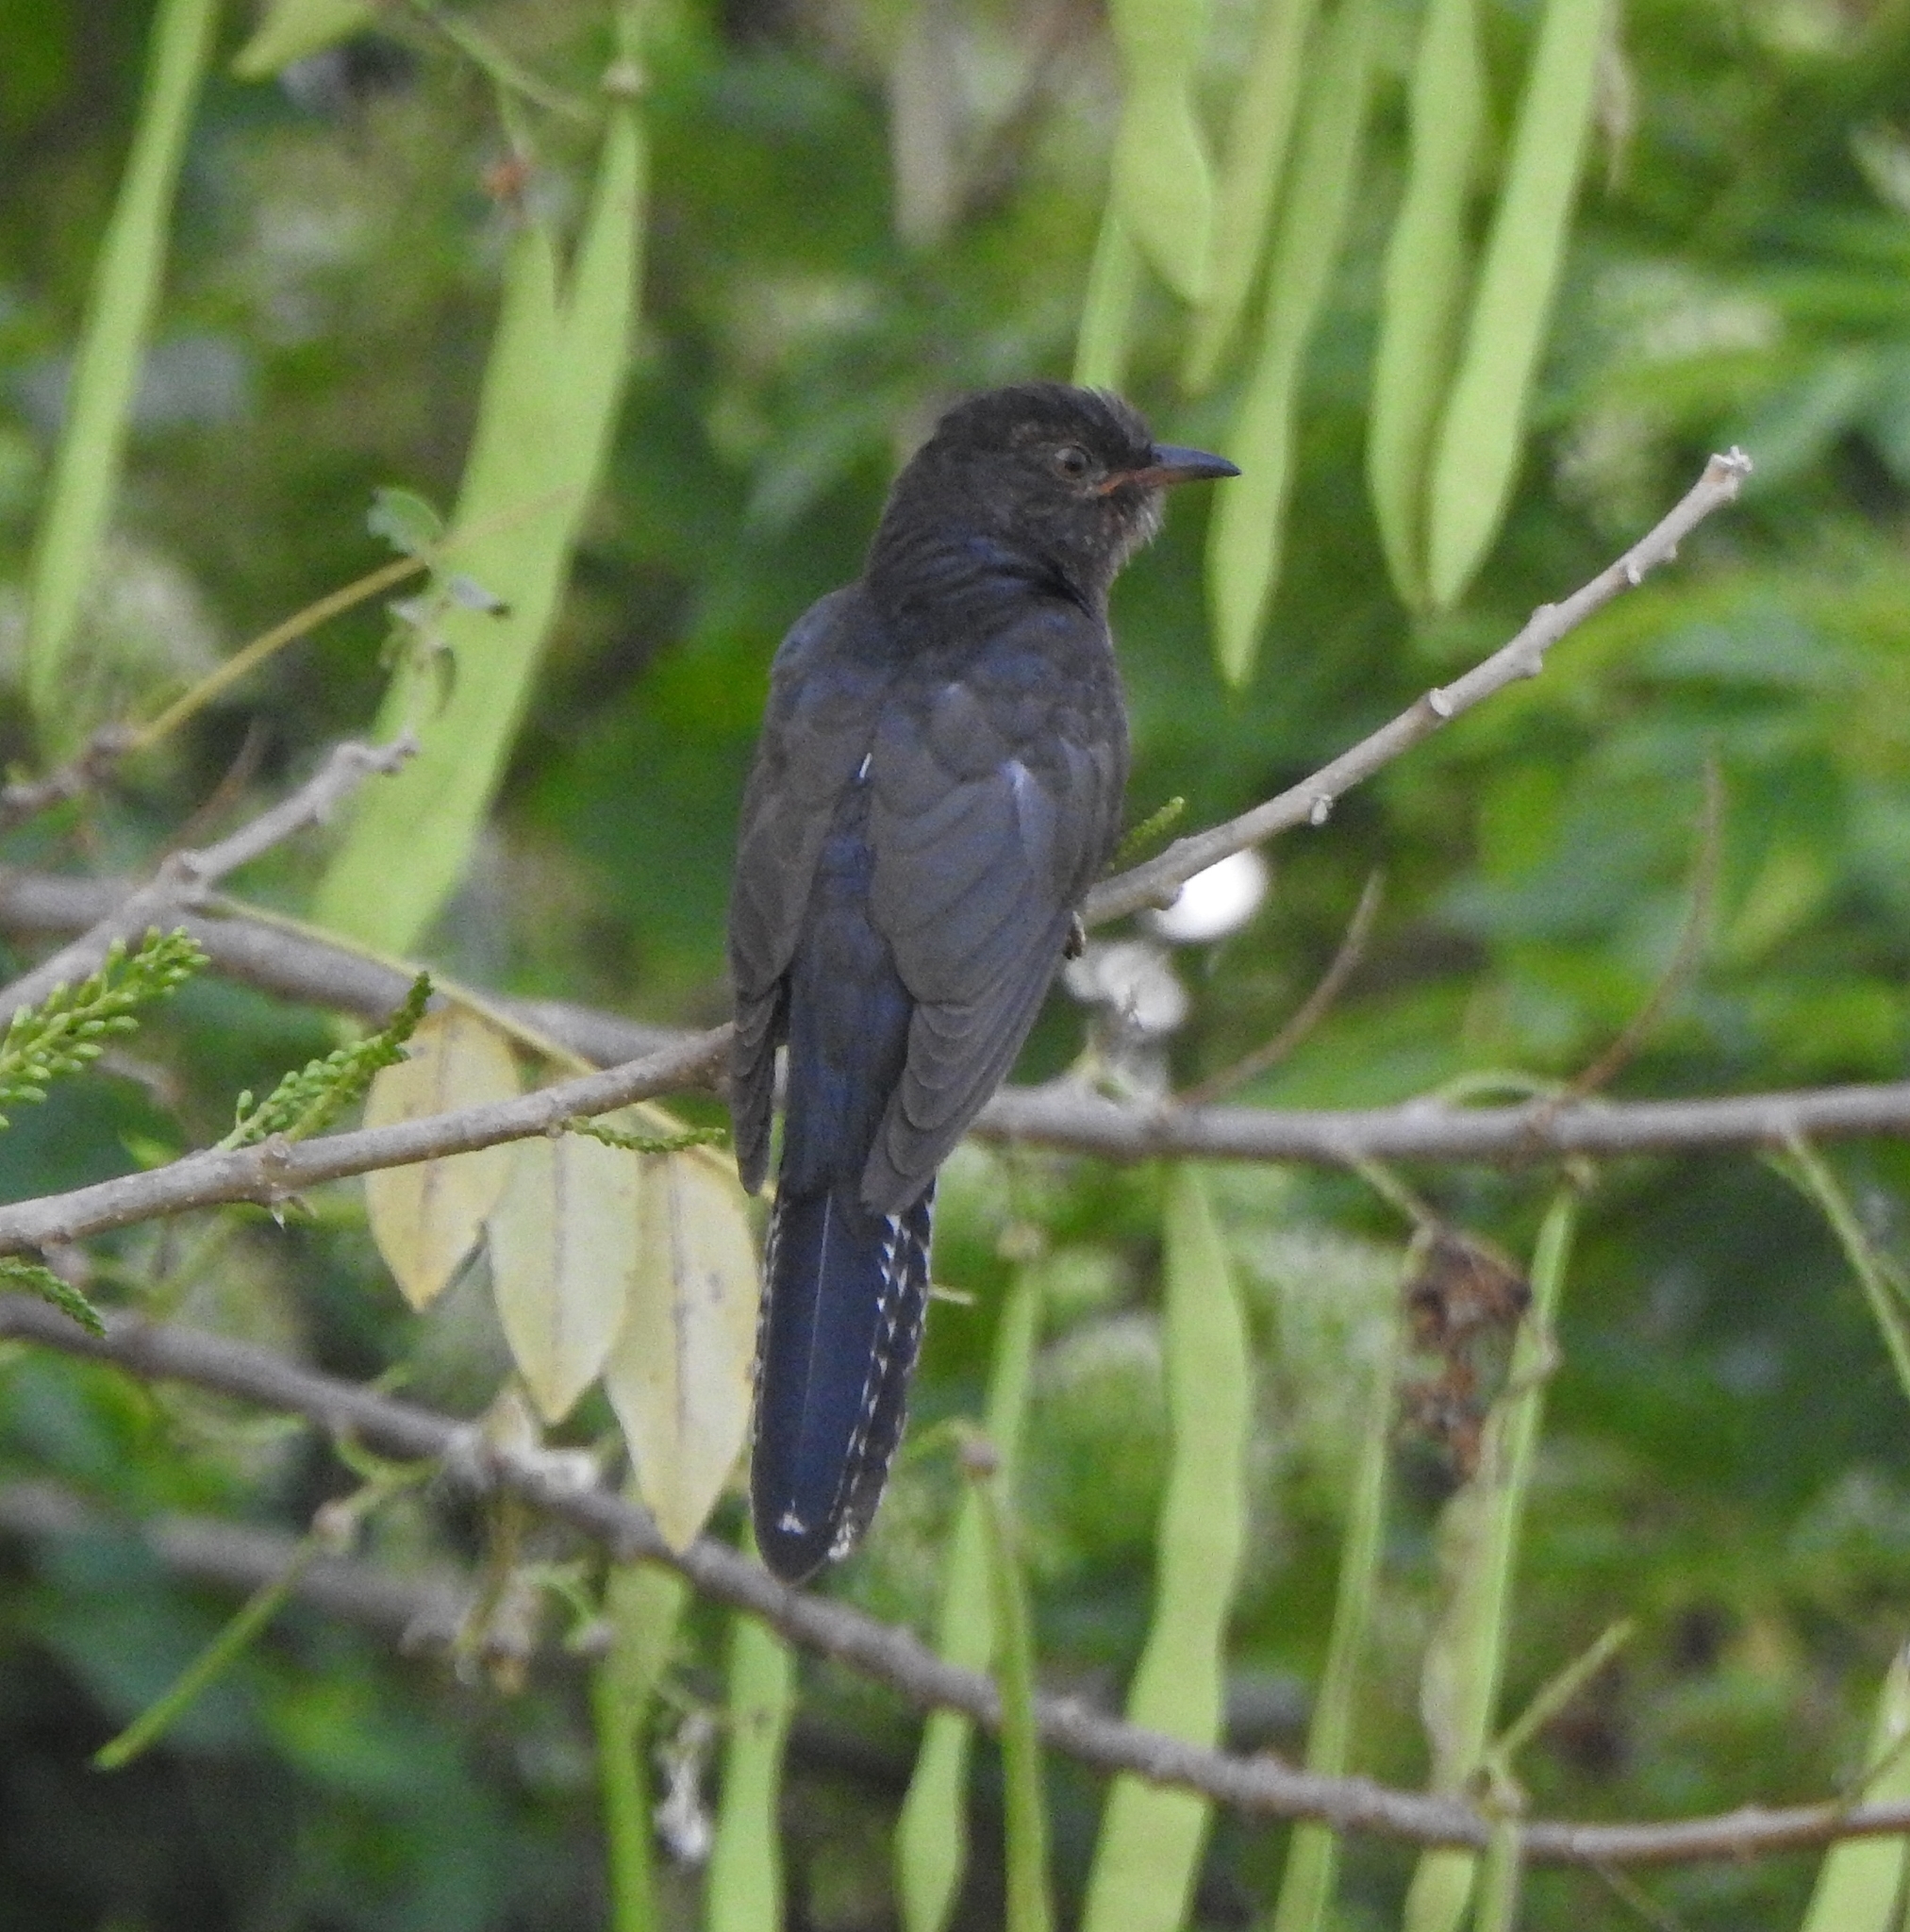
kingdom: Animalia
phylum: Chordata
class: Aves
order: Cuculiformes
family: Cuculidae
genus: Cacomantis
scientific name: Cacomantis passerinus
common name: Grey-bellied cuckoo
